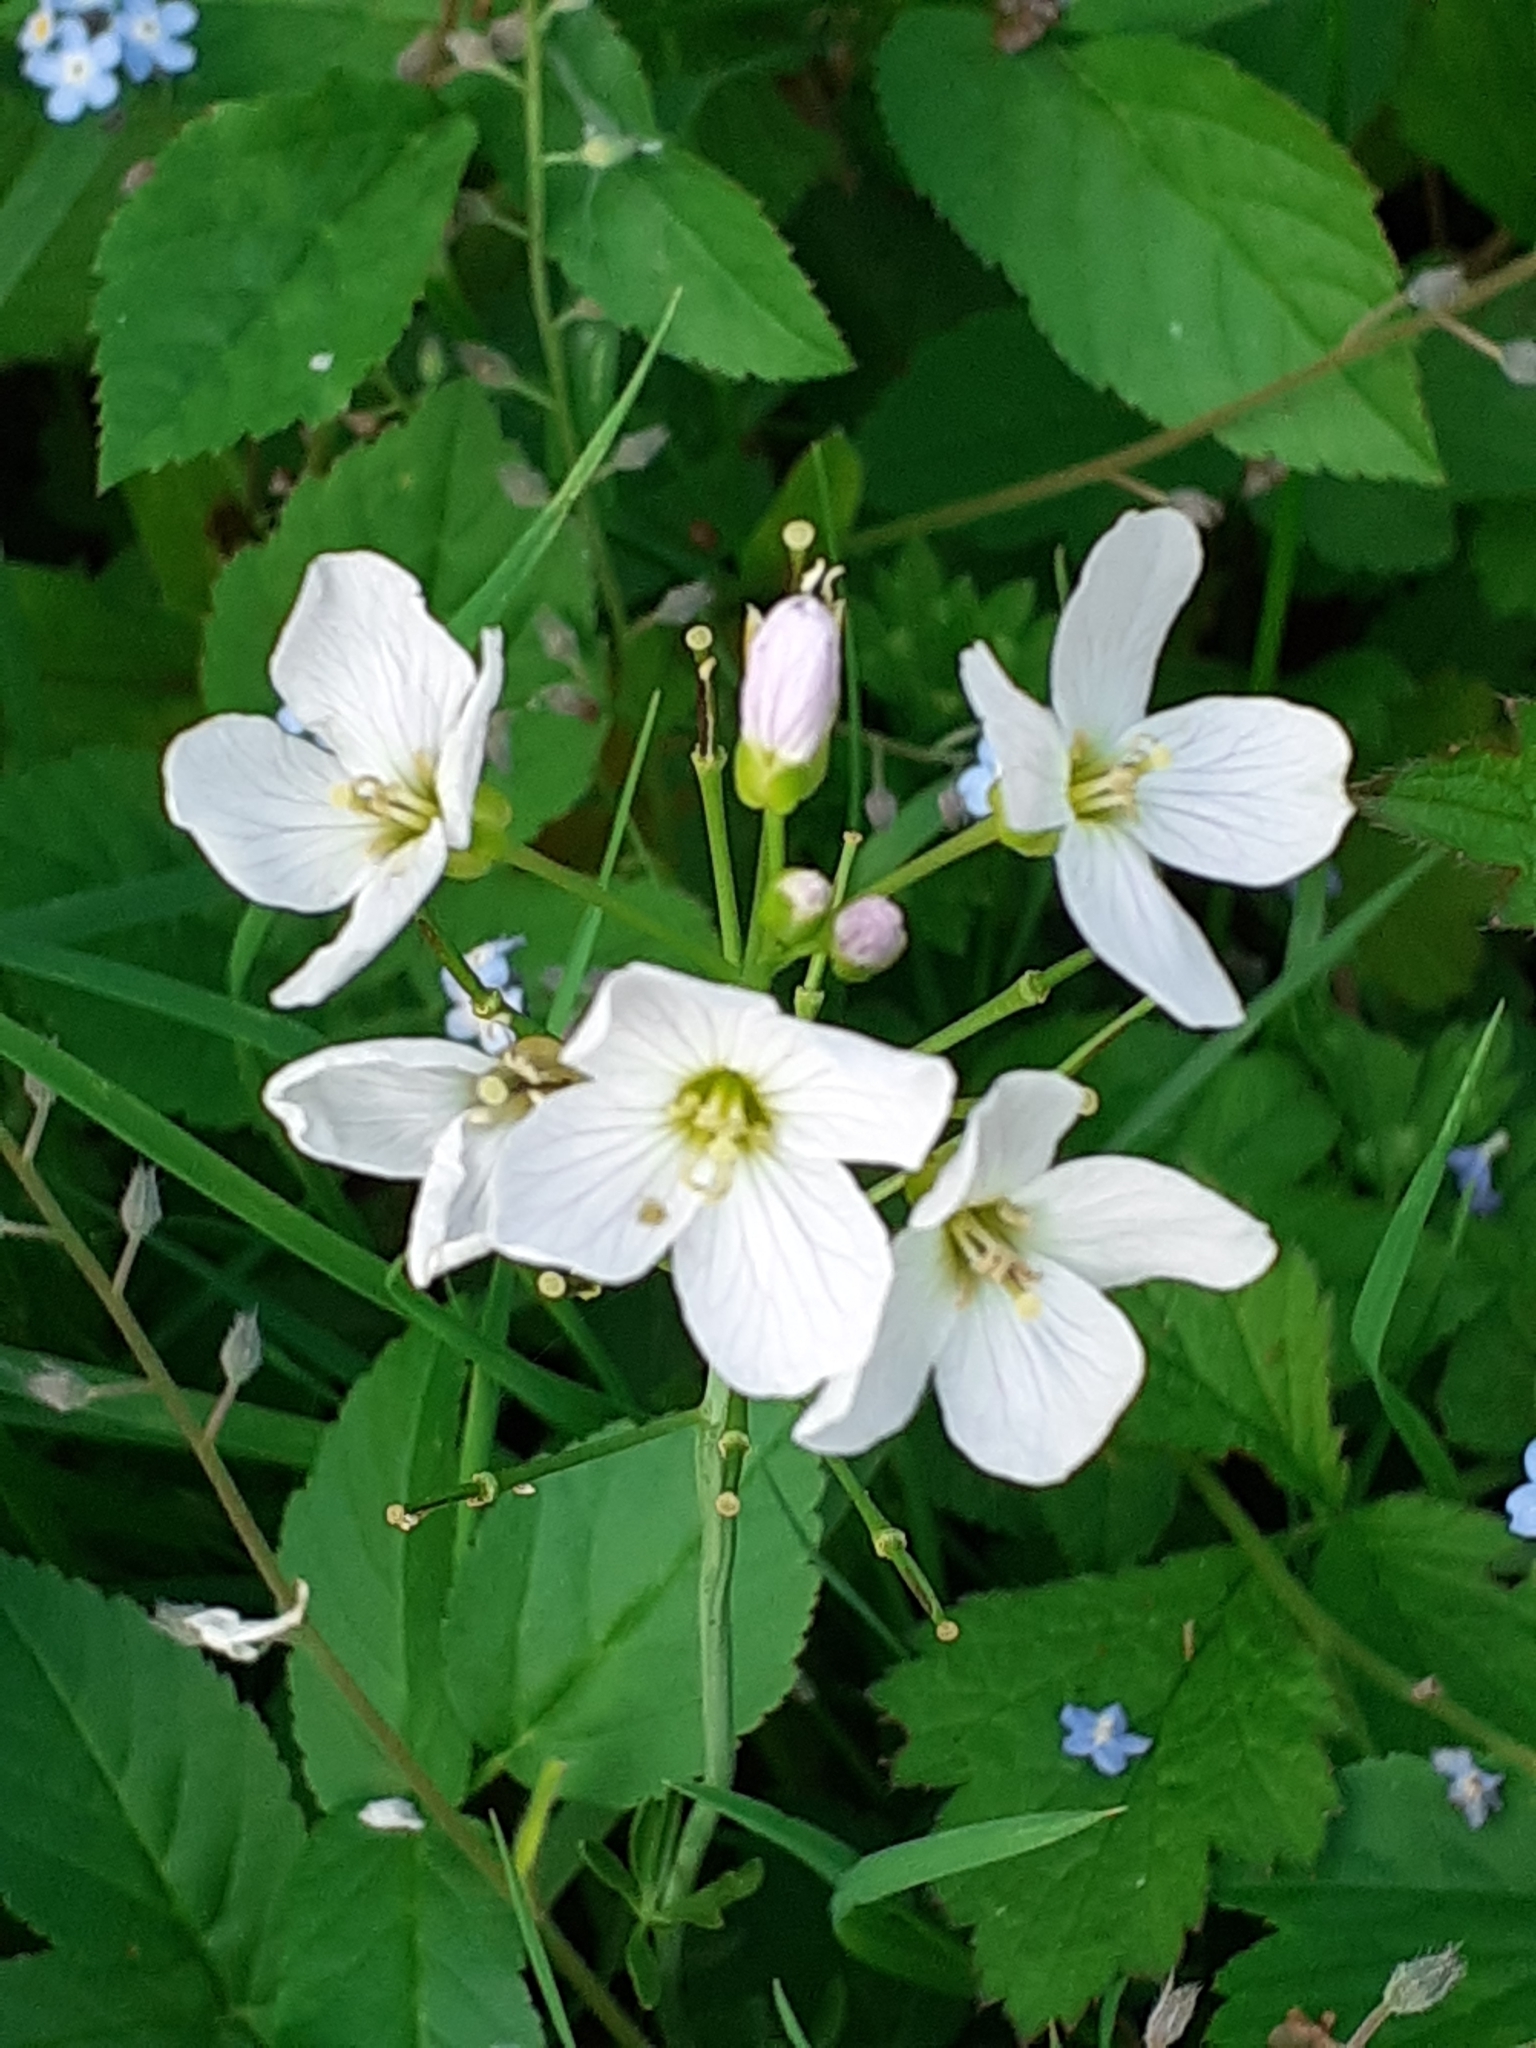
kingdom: Plantae
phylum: Tracheophyta
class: Magnoliopsida
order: Brassicales
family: Brassicaceae
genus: Cardamine
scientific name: Cardamine pratensis
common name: Cuckoo flower
